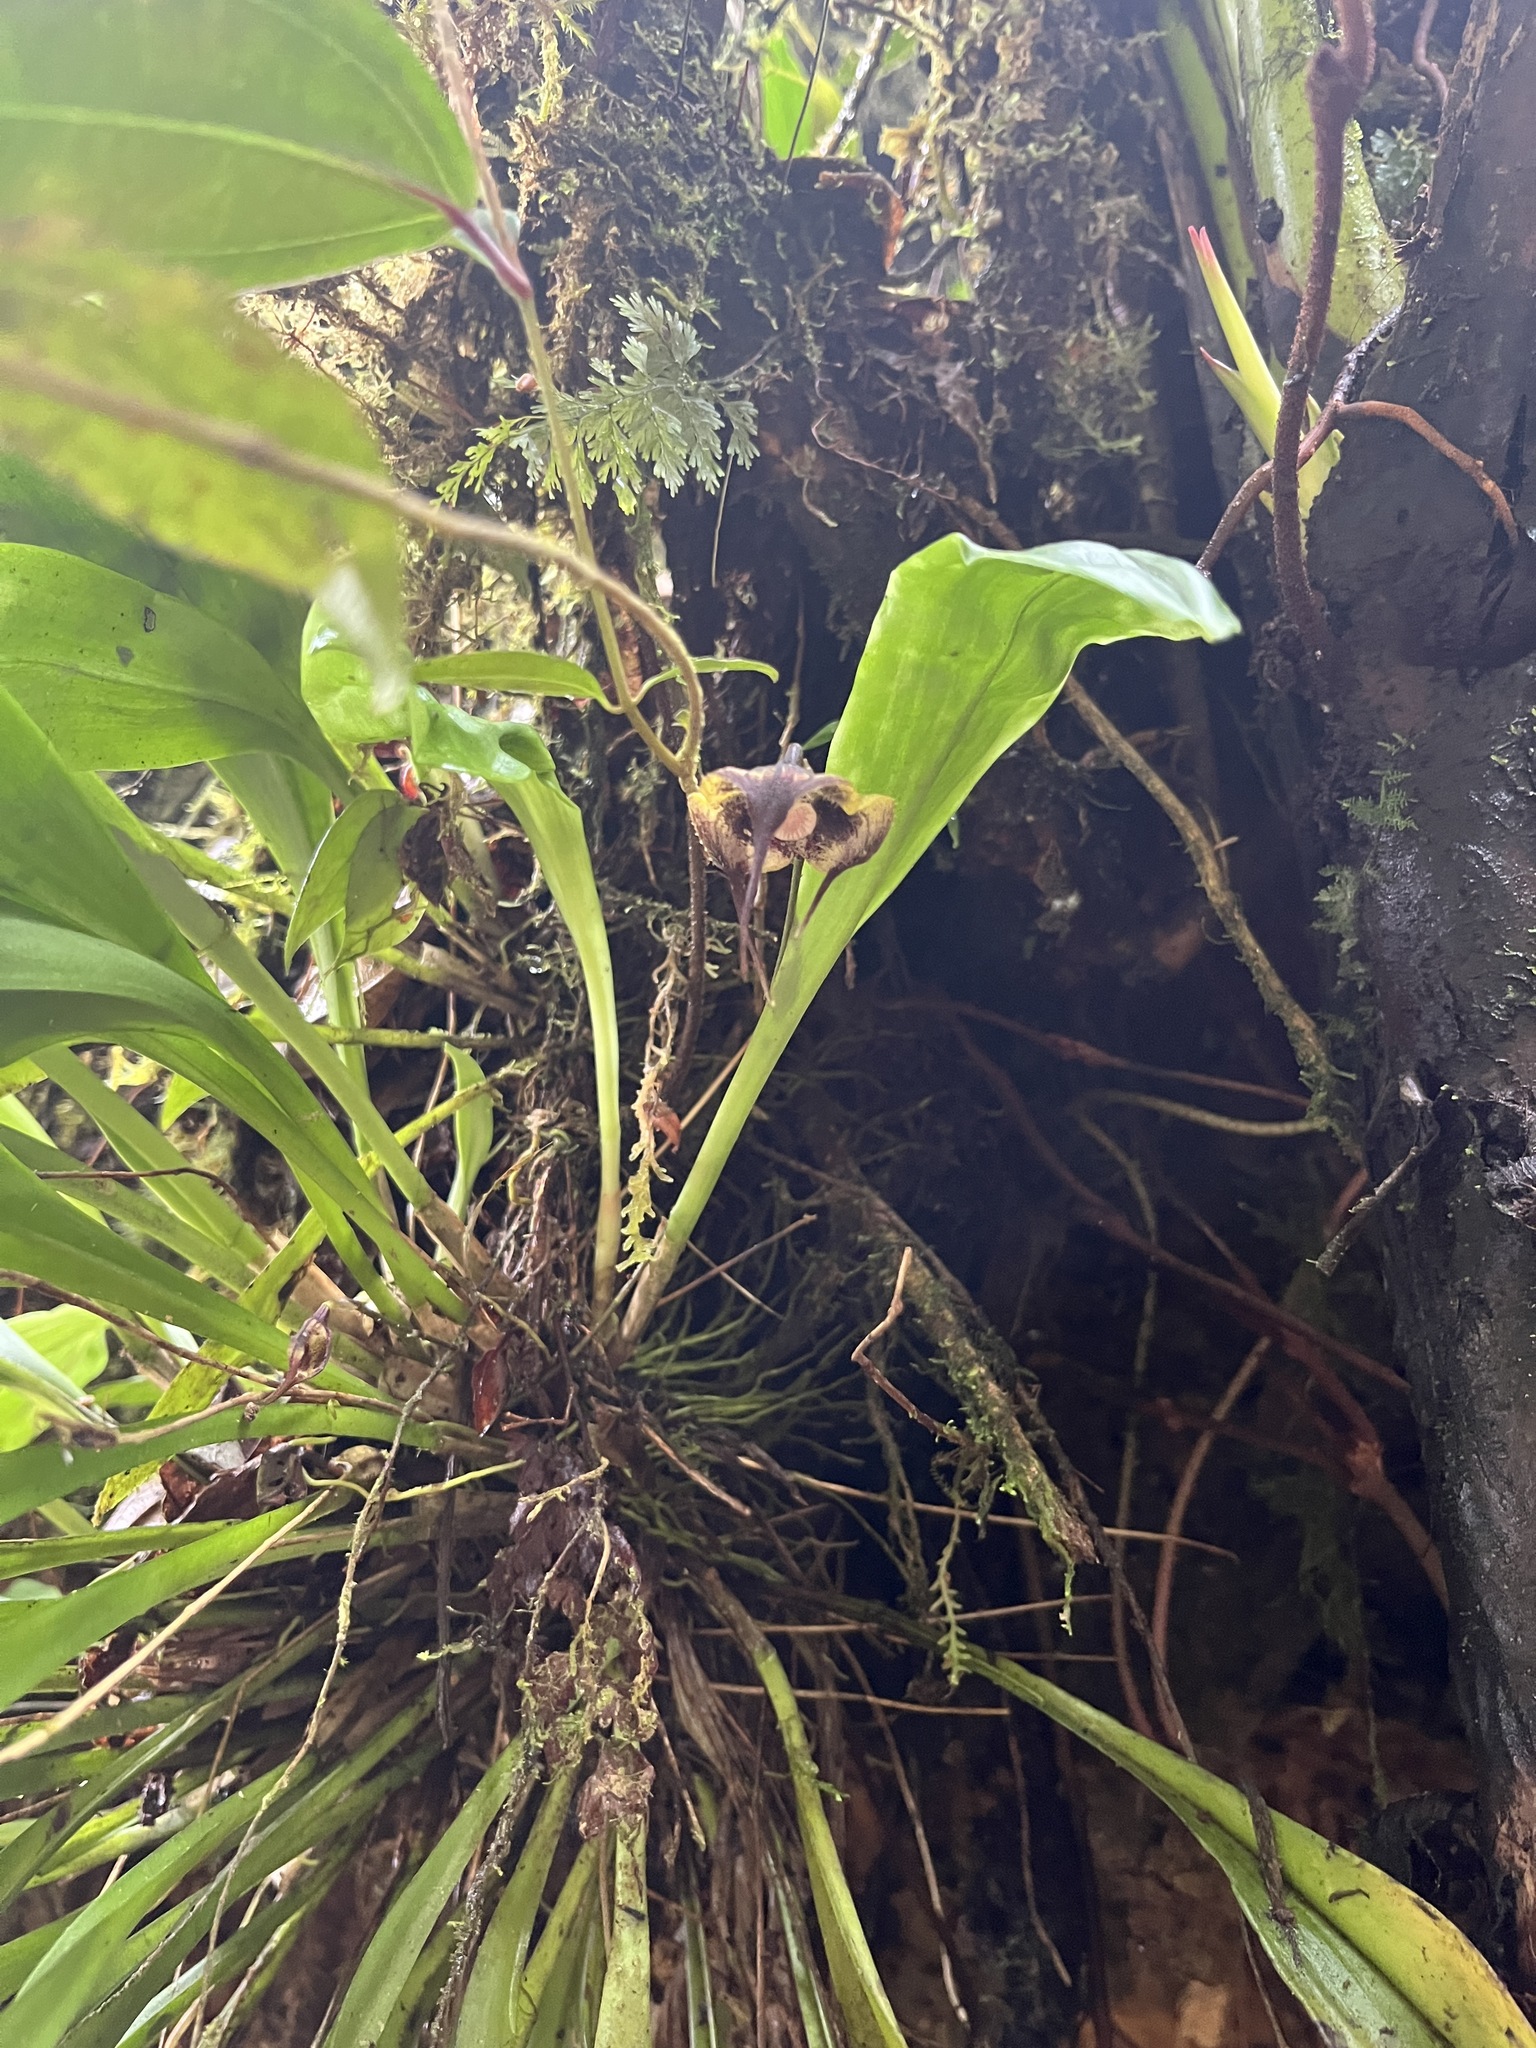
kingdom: Plantae
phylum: Tracheophyta
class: Liliopsida
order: Asparagales
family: Orchidaceae
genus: Dracula
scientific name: Dracula carcinopsis
